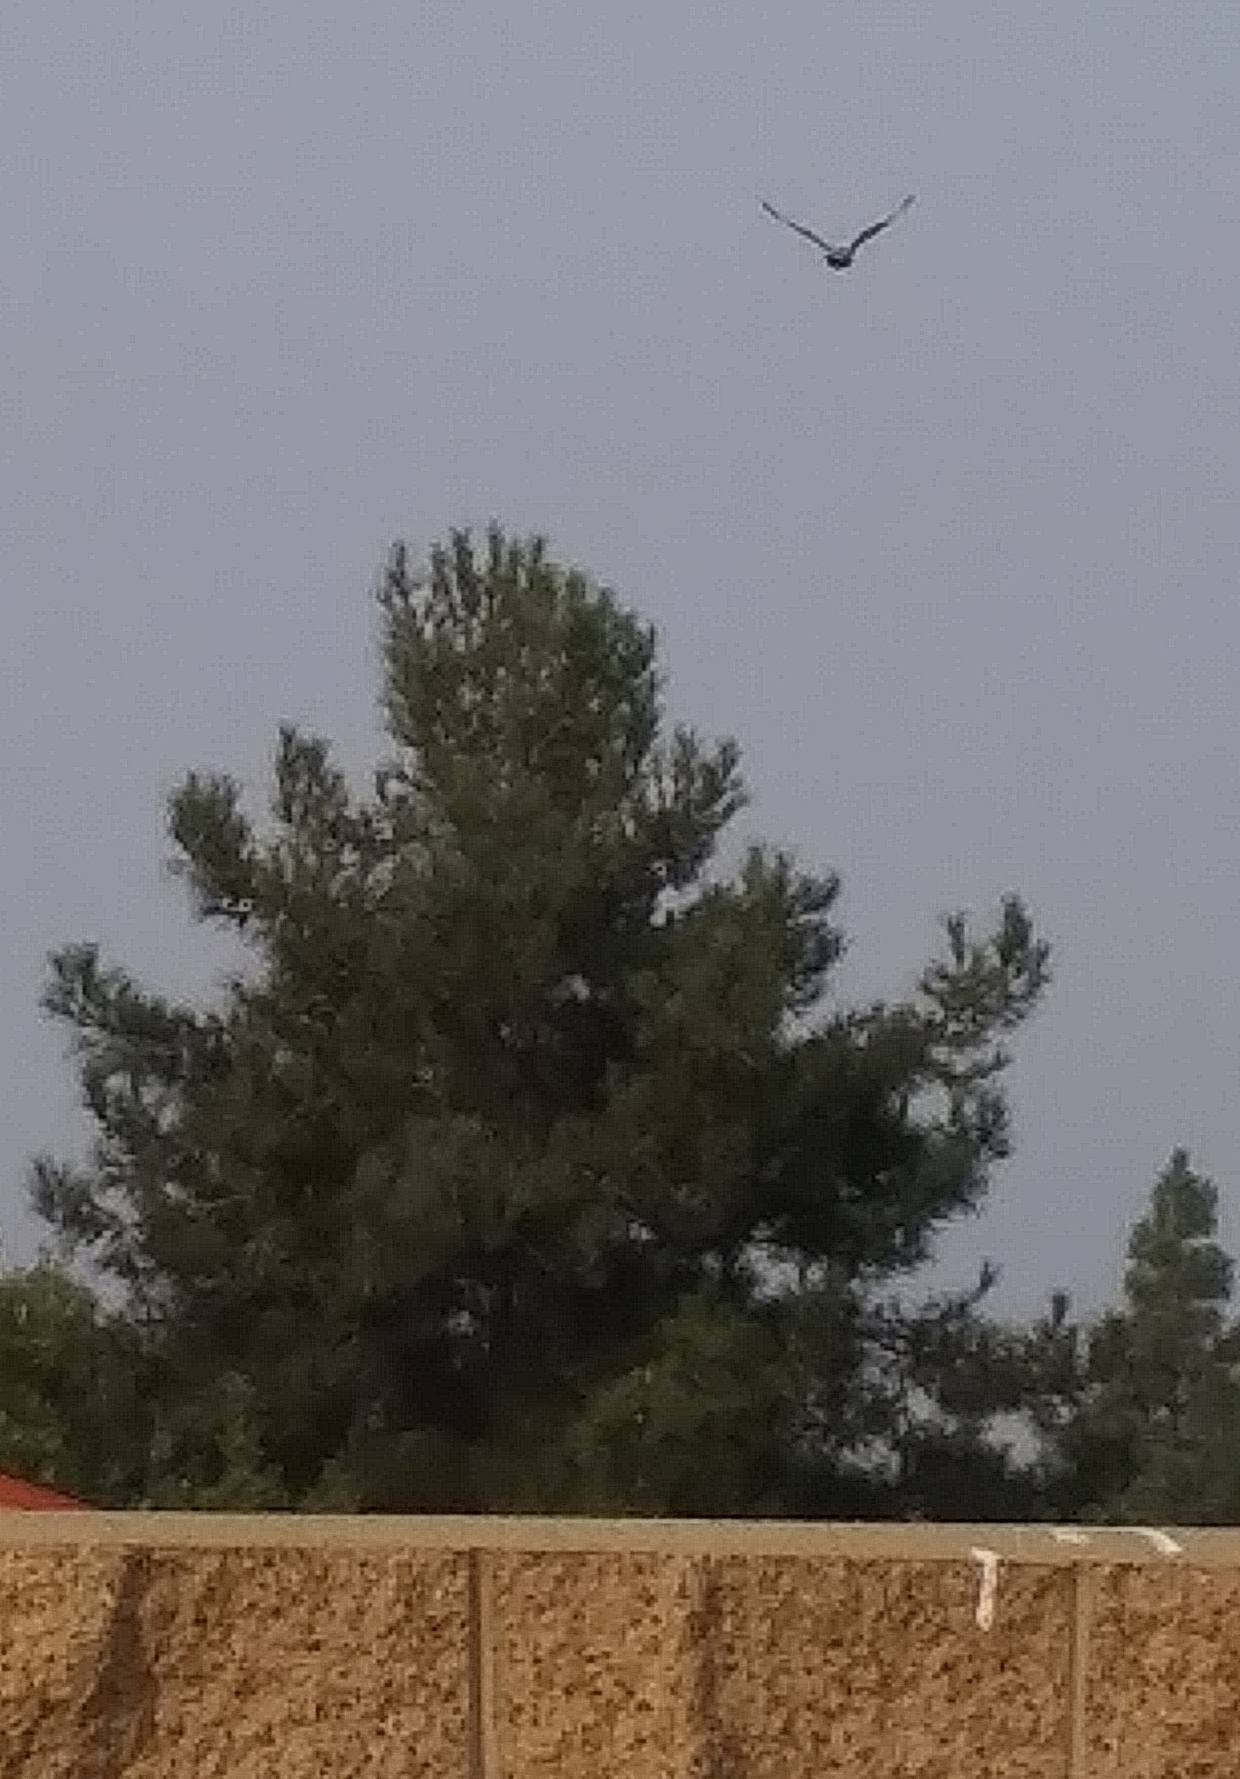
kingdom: Animalia
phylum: Chordata
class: Aves
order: Accipitriformes
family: Accipitridae
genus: Buteo
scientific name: Buteo lineatus
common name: Red-shouldered hawk
